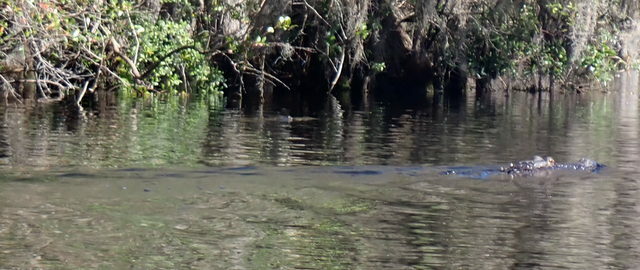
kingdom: Animalia
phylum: Chordata
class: Crocodylia
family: Alligatoridae
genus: Alligator
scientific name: Alligator mississippiensis
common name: American alligator
